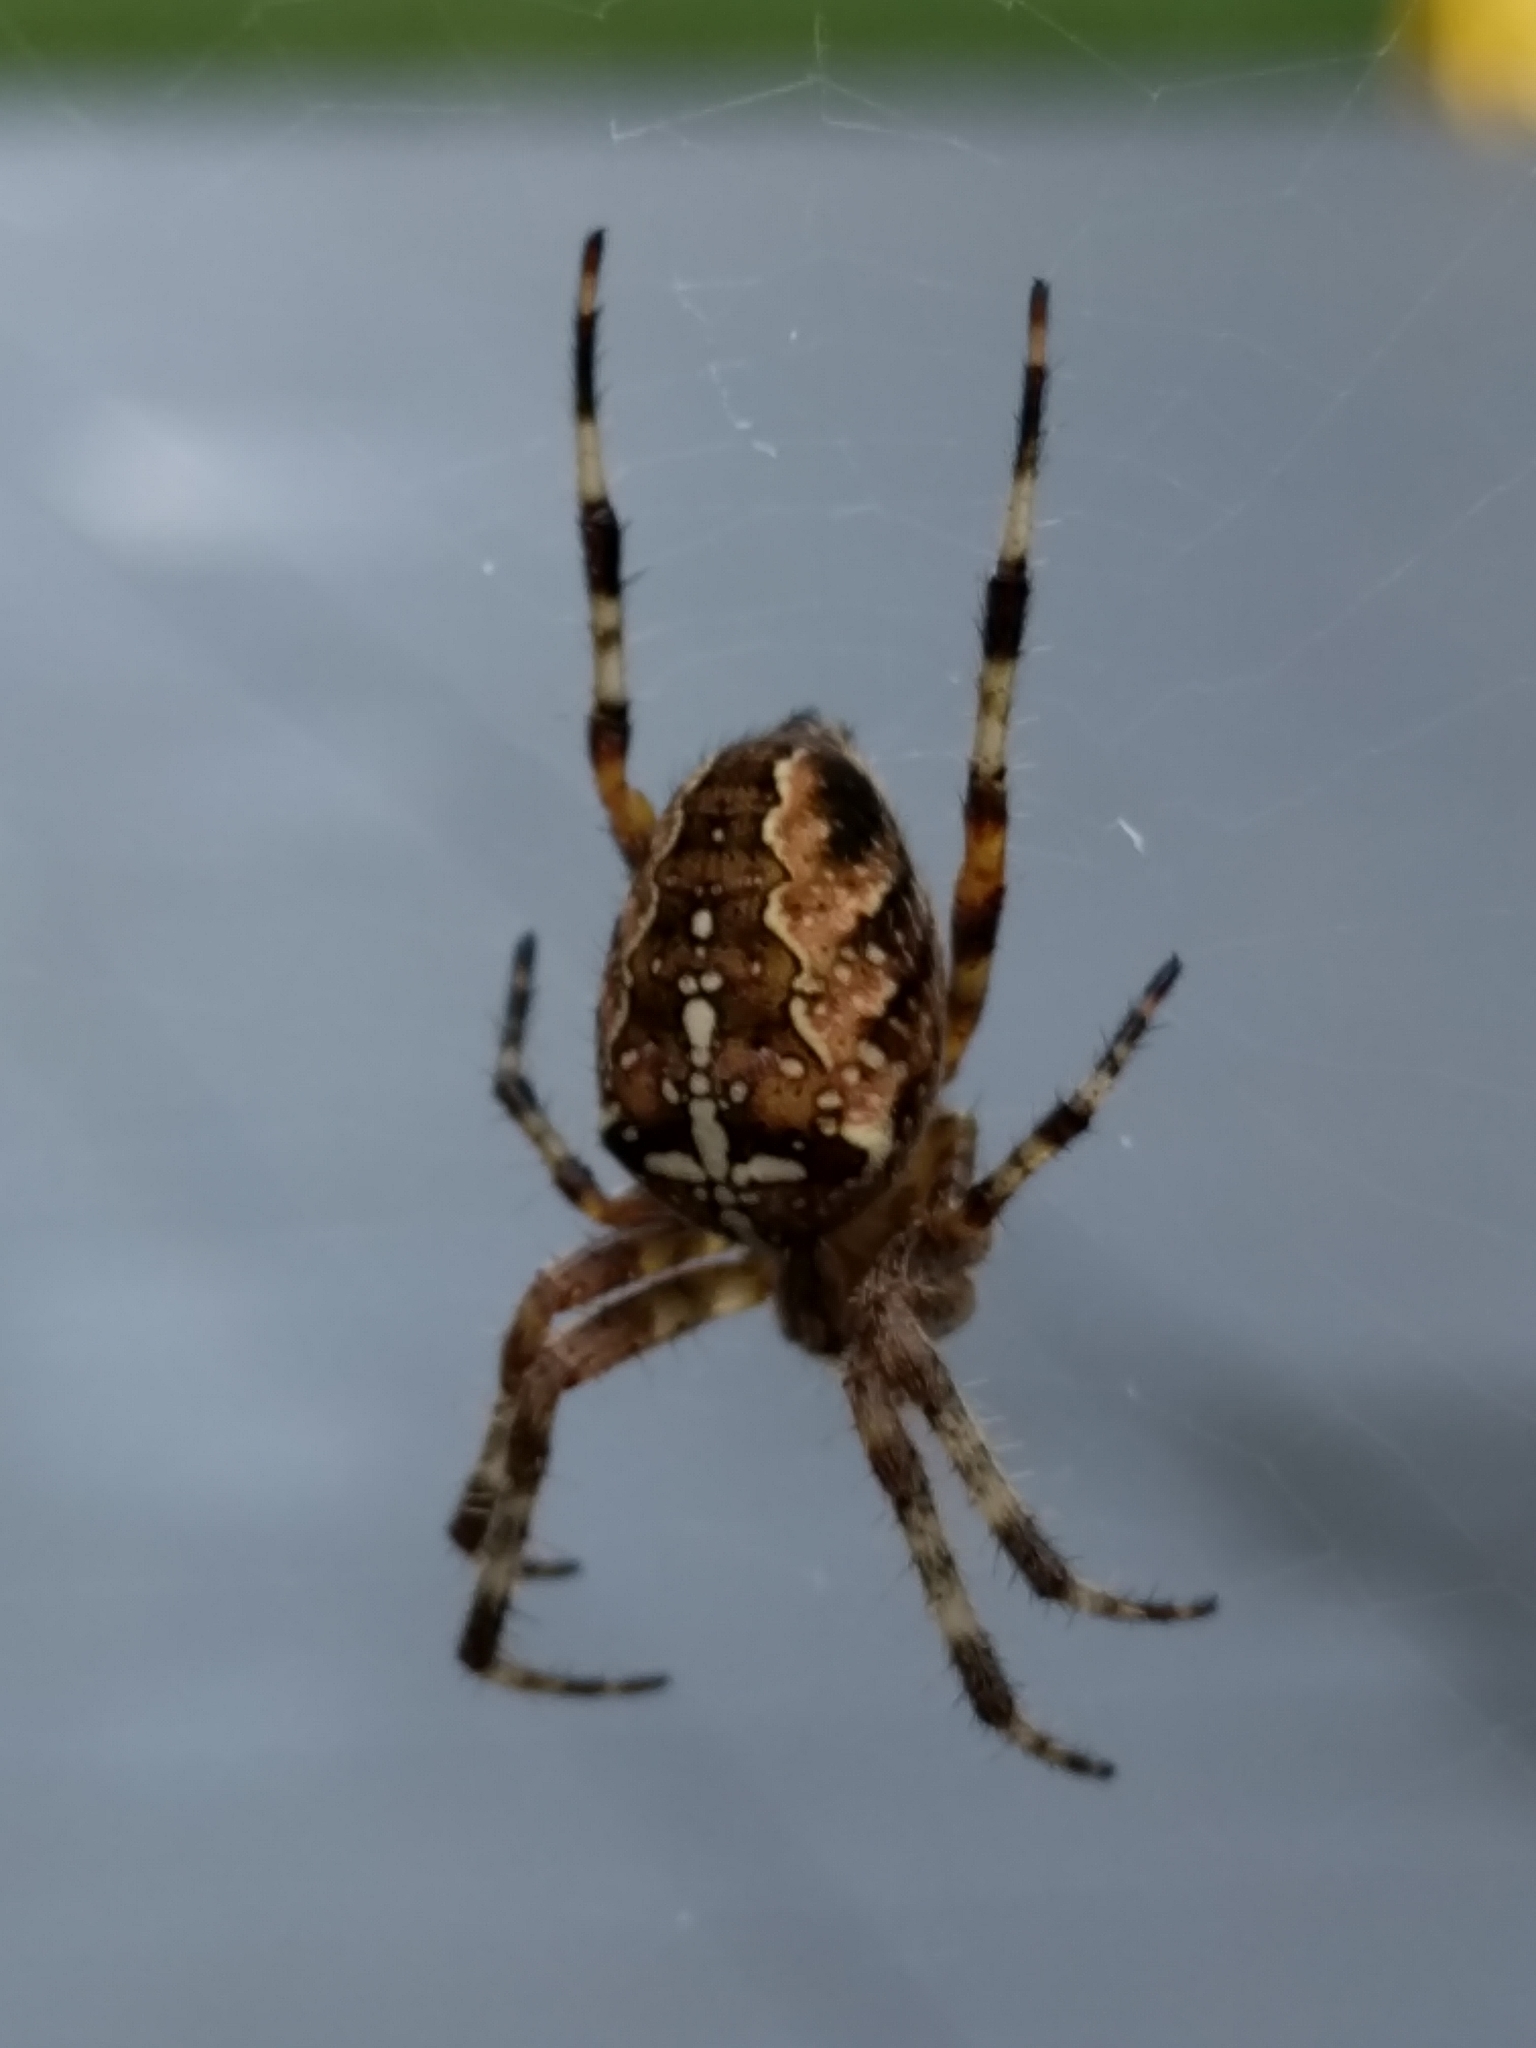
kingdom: Animalia
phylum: Arthropoda
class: Arachnida
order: Araneae
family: Araneidae
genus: Araneus
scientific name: Araneus diadematus
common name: Cross orbweaver
